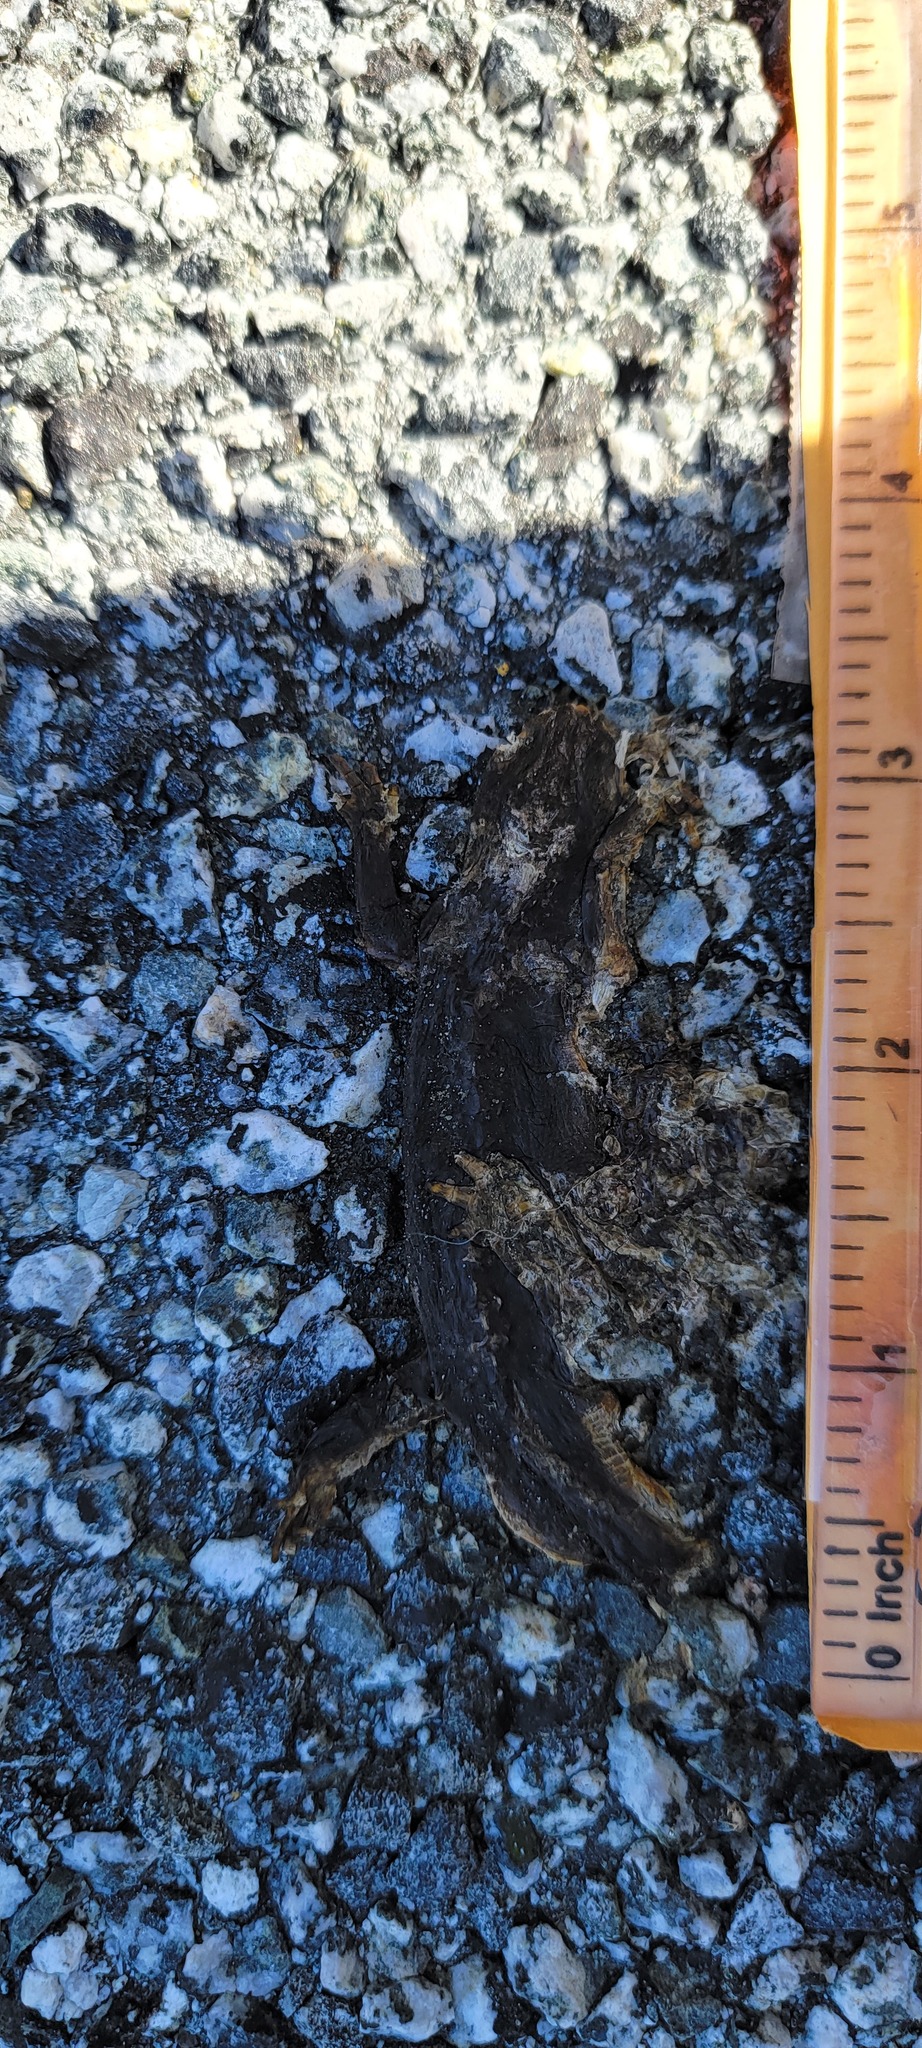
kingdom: Animalia
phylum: Chordata
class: Amphibia
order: Caudata
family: Salamandridae
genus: Taricha
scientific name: Taricha
